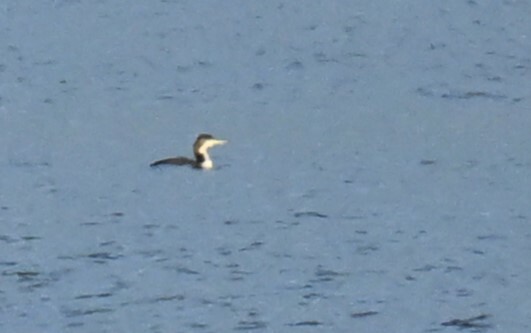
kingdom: Animalia
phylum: Chordata
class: Aves
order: Gaviiformes
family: Gaviidae
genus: Gavia
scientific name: Gavia immer
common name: Common loon
